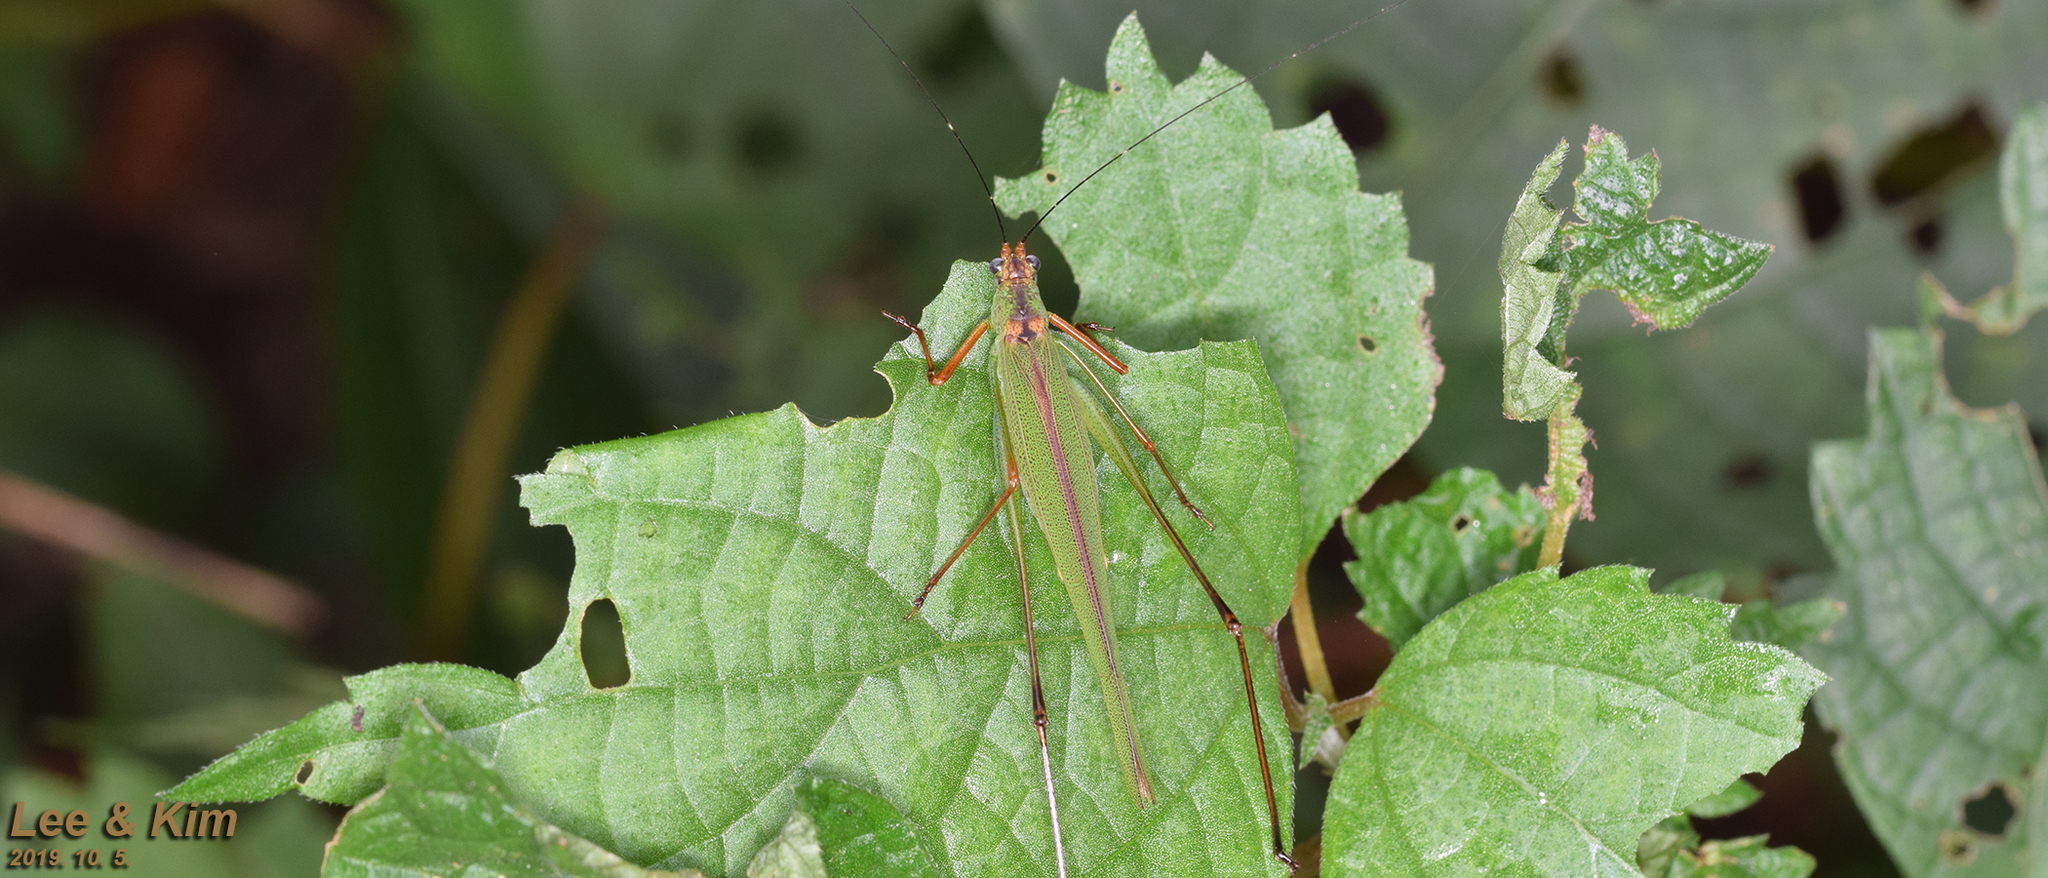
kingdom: Animalia
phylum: Arthropoda
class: Insecta
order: Orthoptera
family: Tettigoniidae
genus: Phaneroptera
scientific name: Phaneroptera nigroantennata
